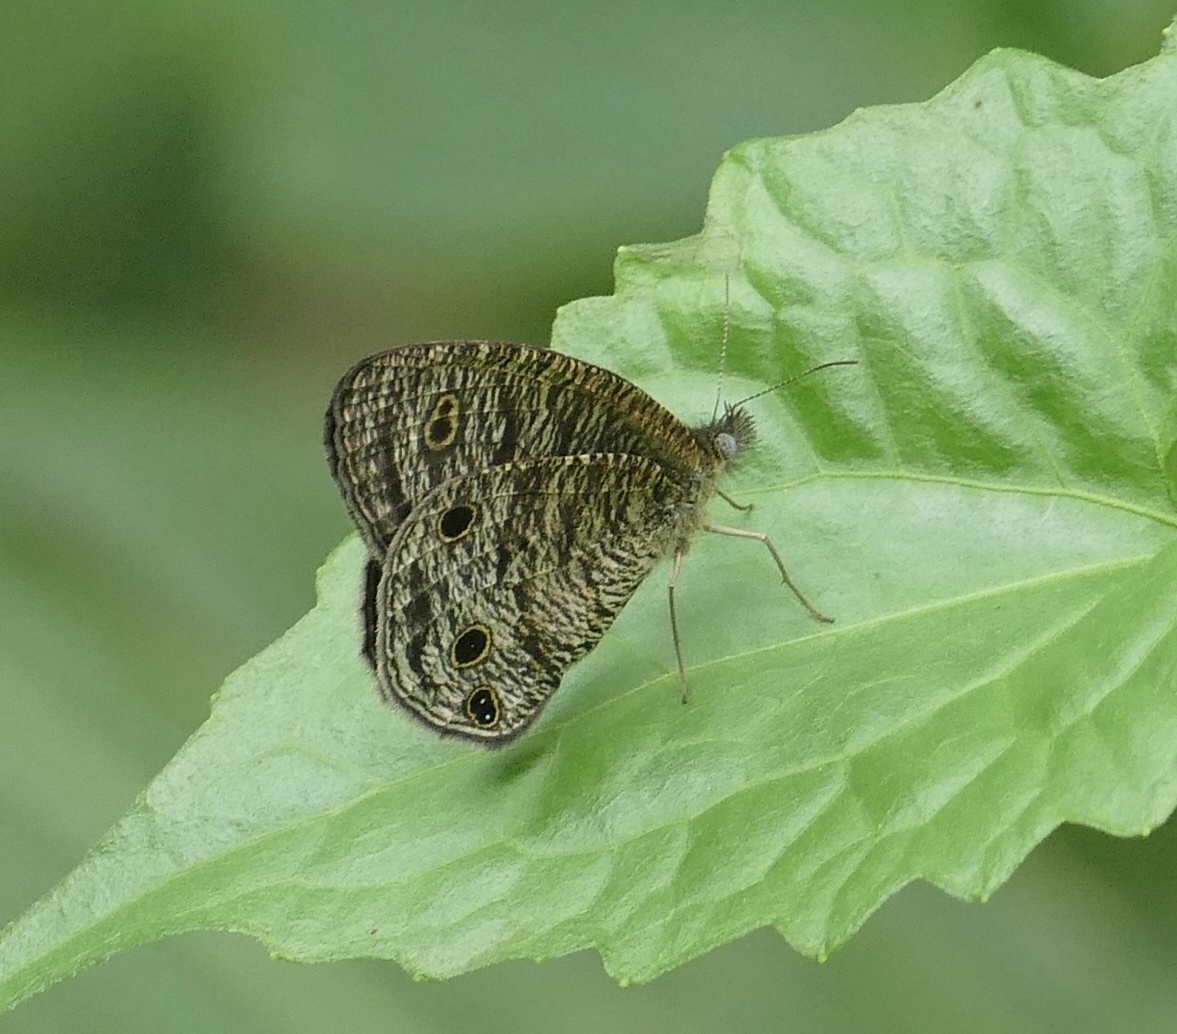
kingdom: Animalia
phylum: Arthropoda
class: Insecta
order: Lepidoptera
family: Nymphalidae
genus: Ypthima
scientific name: Ypthima pandocus
